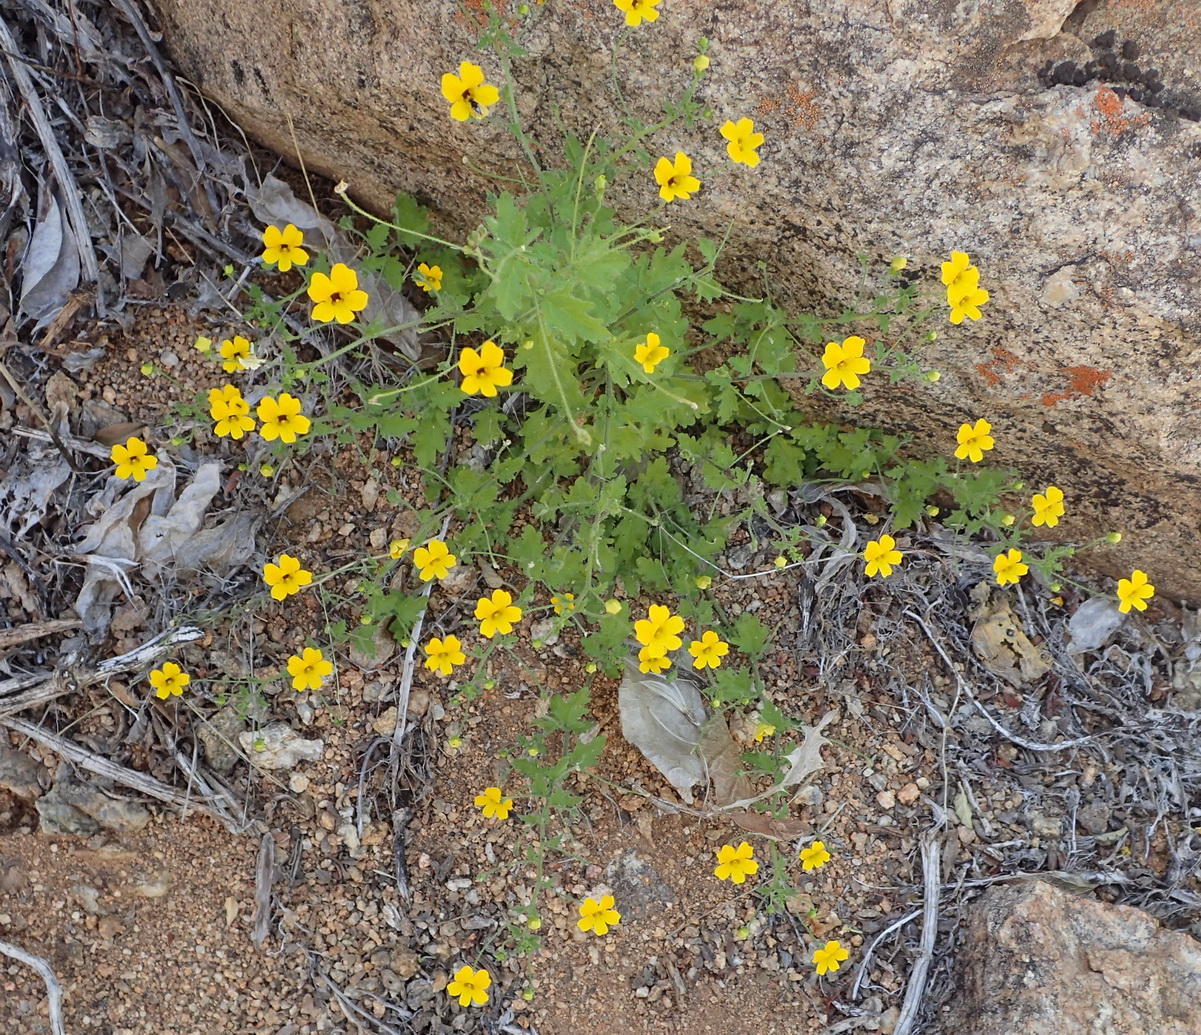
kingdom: Plantae
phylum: Tracheophyta
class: Magnoliopsida
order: Lamiales
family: Scrophulariaceae
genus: Jamesbrittenia
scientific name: Jamesbrittenia pedunculosa
